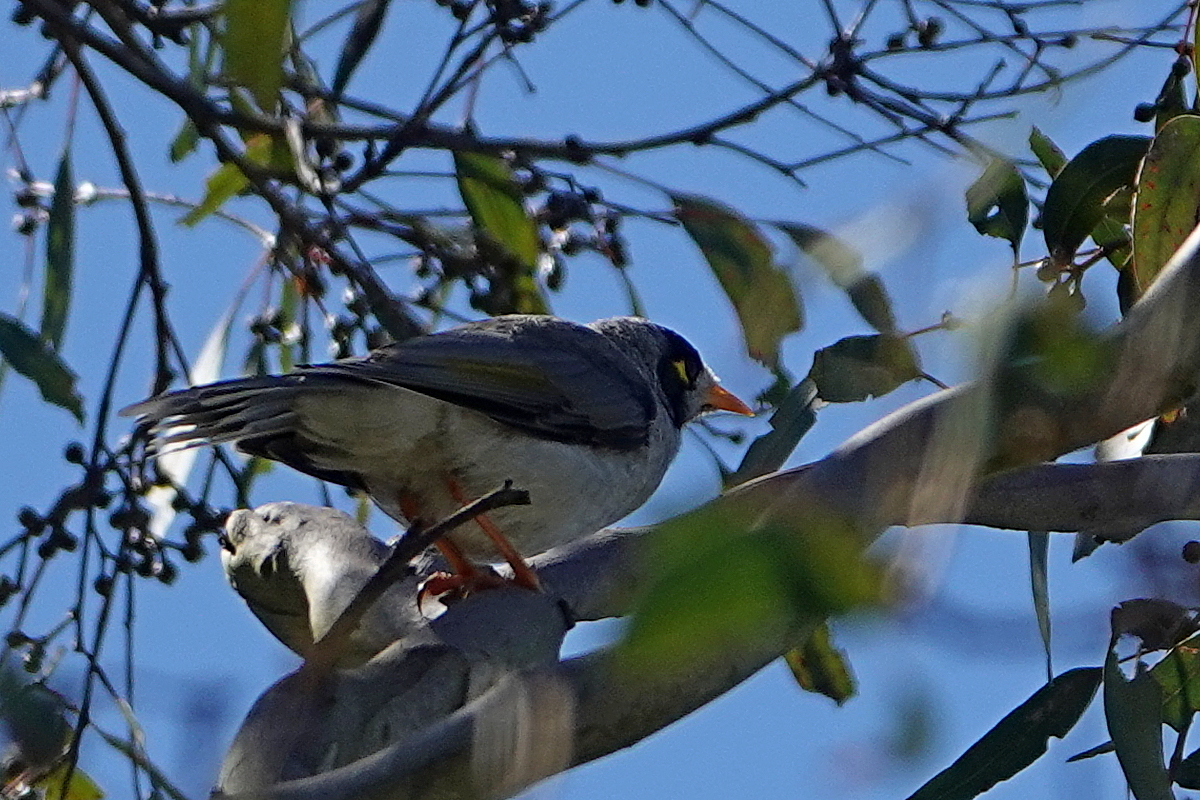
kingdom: Animalia
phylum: Chordata
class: Aves
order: Passeriformes
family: Meliphagidae
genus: Manorina
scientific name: Manorina melanocephala
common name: Noisy miner
